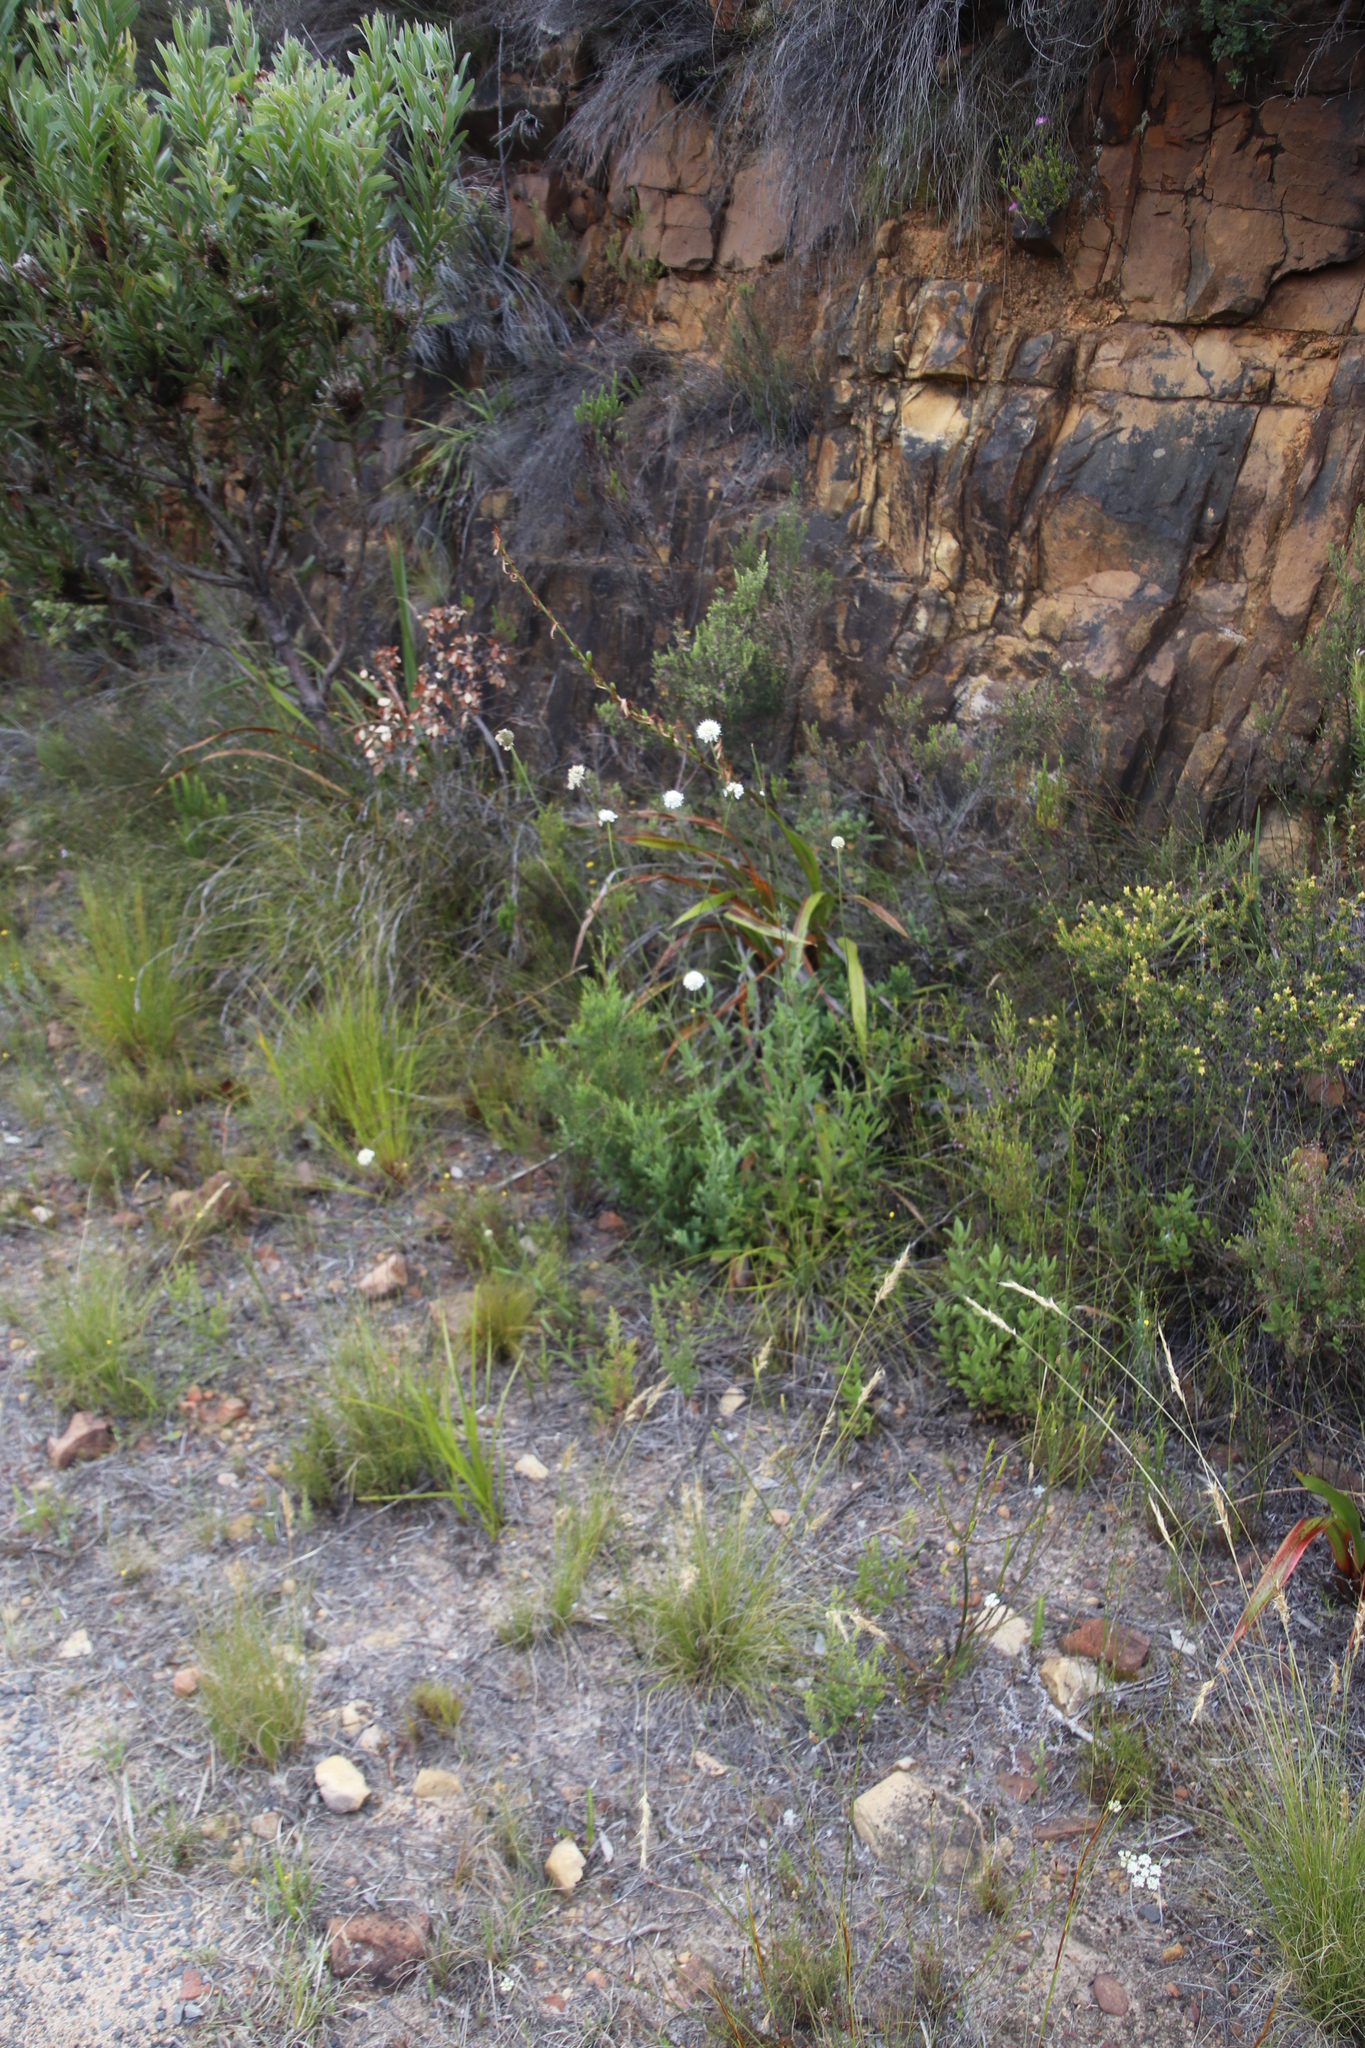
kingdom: Plantae
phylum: Tracheophyta
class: Magnoliopsida
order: Dipsacales
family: Caprifoliaceae
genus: Cephalaria
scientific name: Cephalaria rigida
